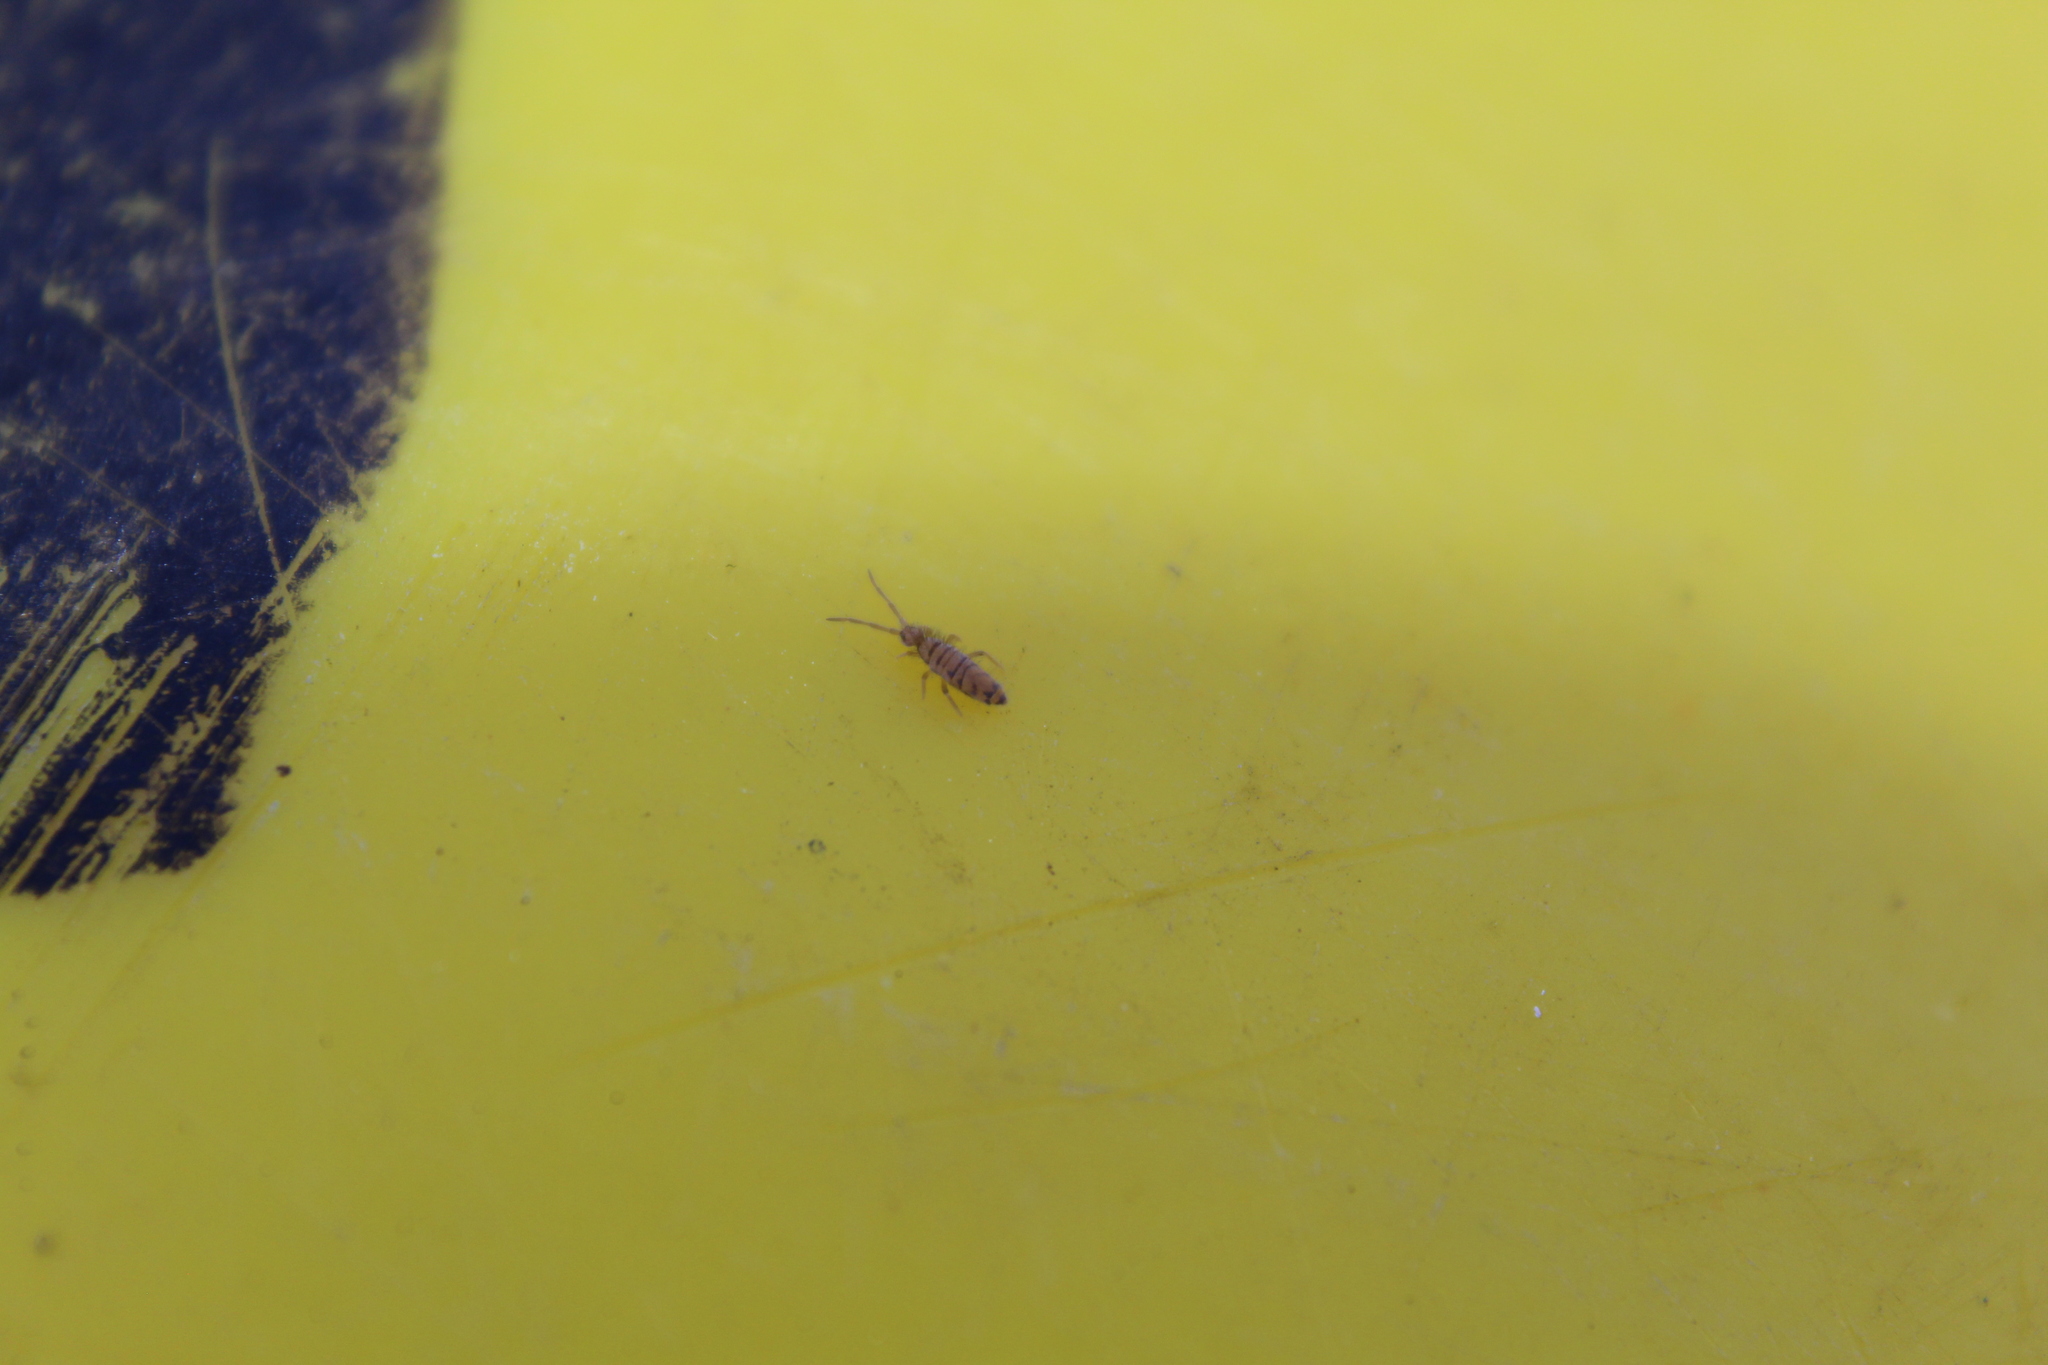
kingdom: Animalia
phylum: Arthropoda
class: Collembola
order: Entomobryomorpha
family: Entomobryidae
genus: Entomobrya
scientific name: Entomobrya multifasciata
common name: Springtail
